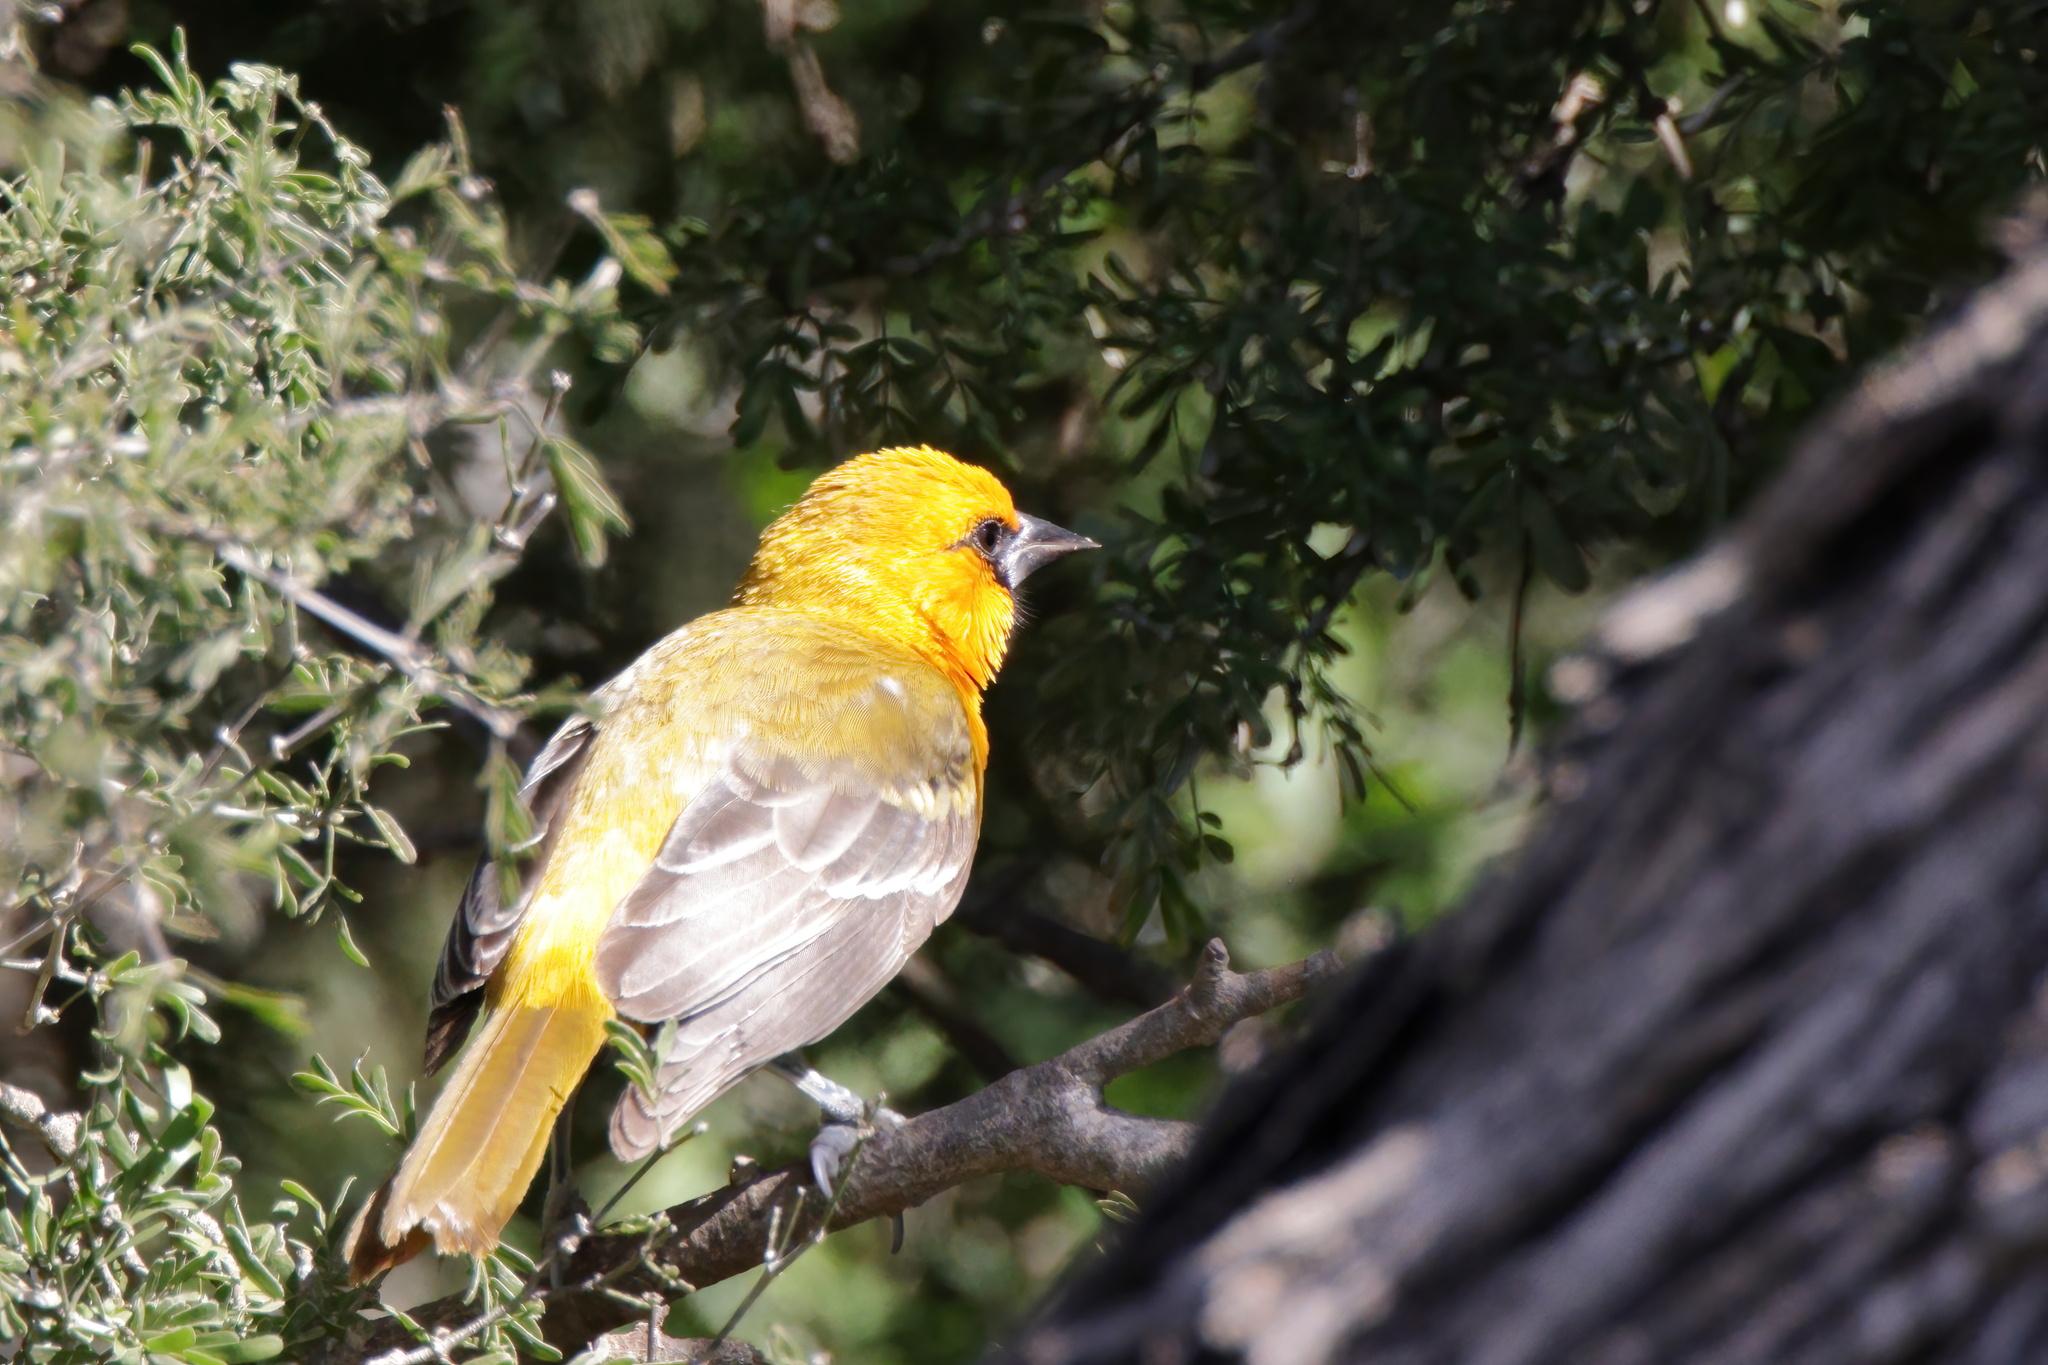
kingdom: Animalia
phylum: Chordata
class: Aves
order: Passeriformes
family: Icteridae
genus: Icterus
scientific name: Icterus gularis
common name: Altamira oriole
